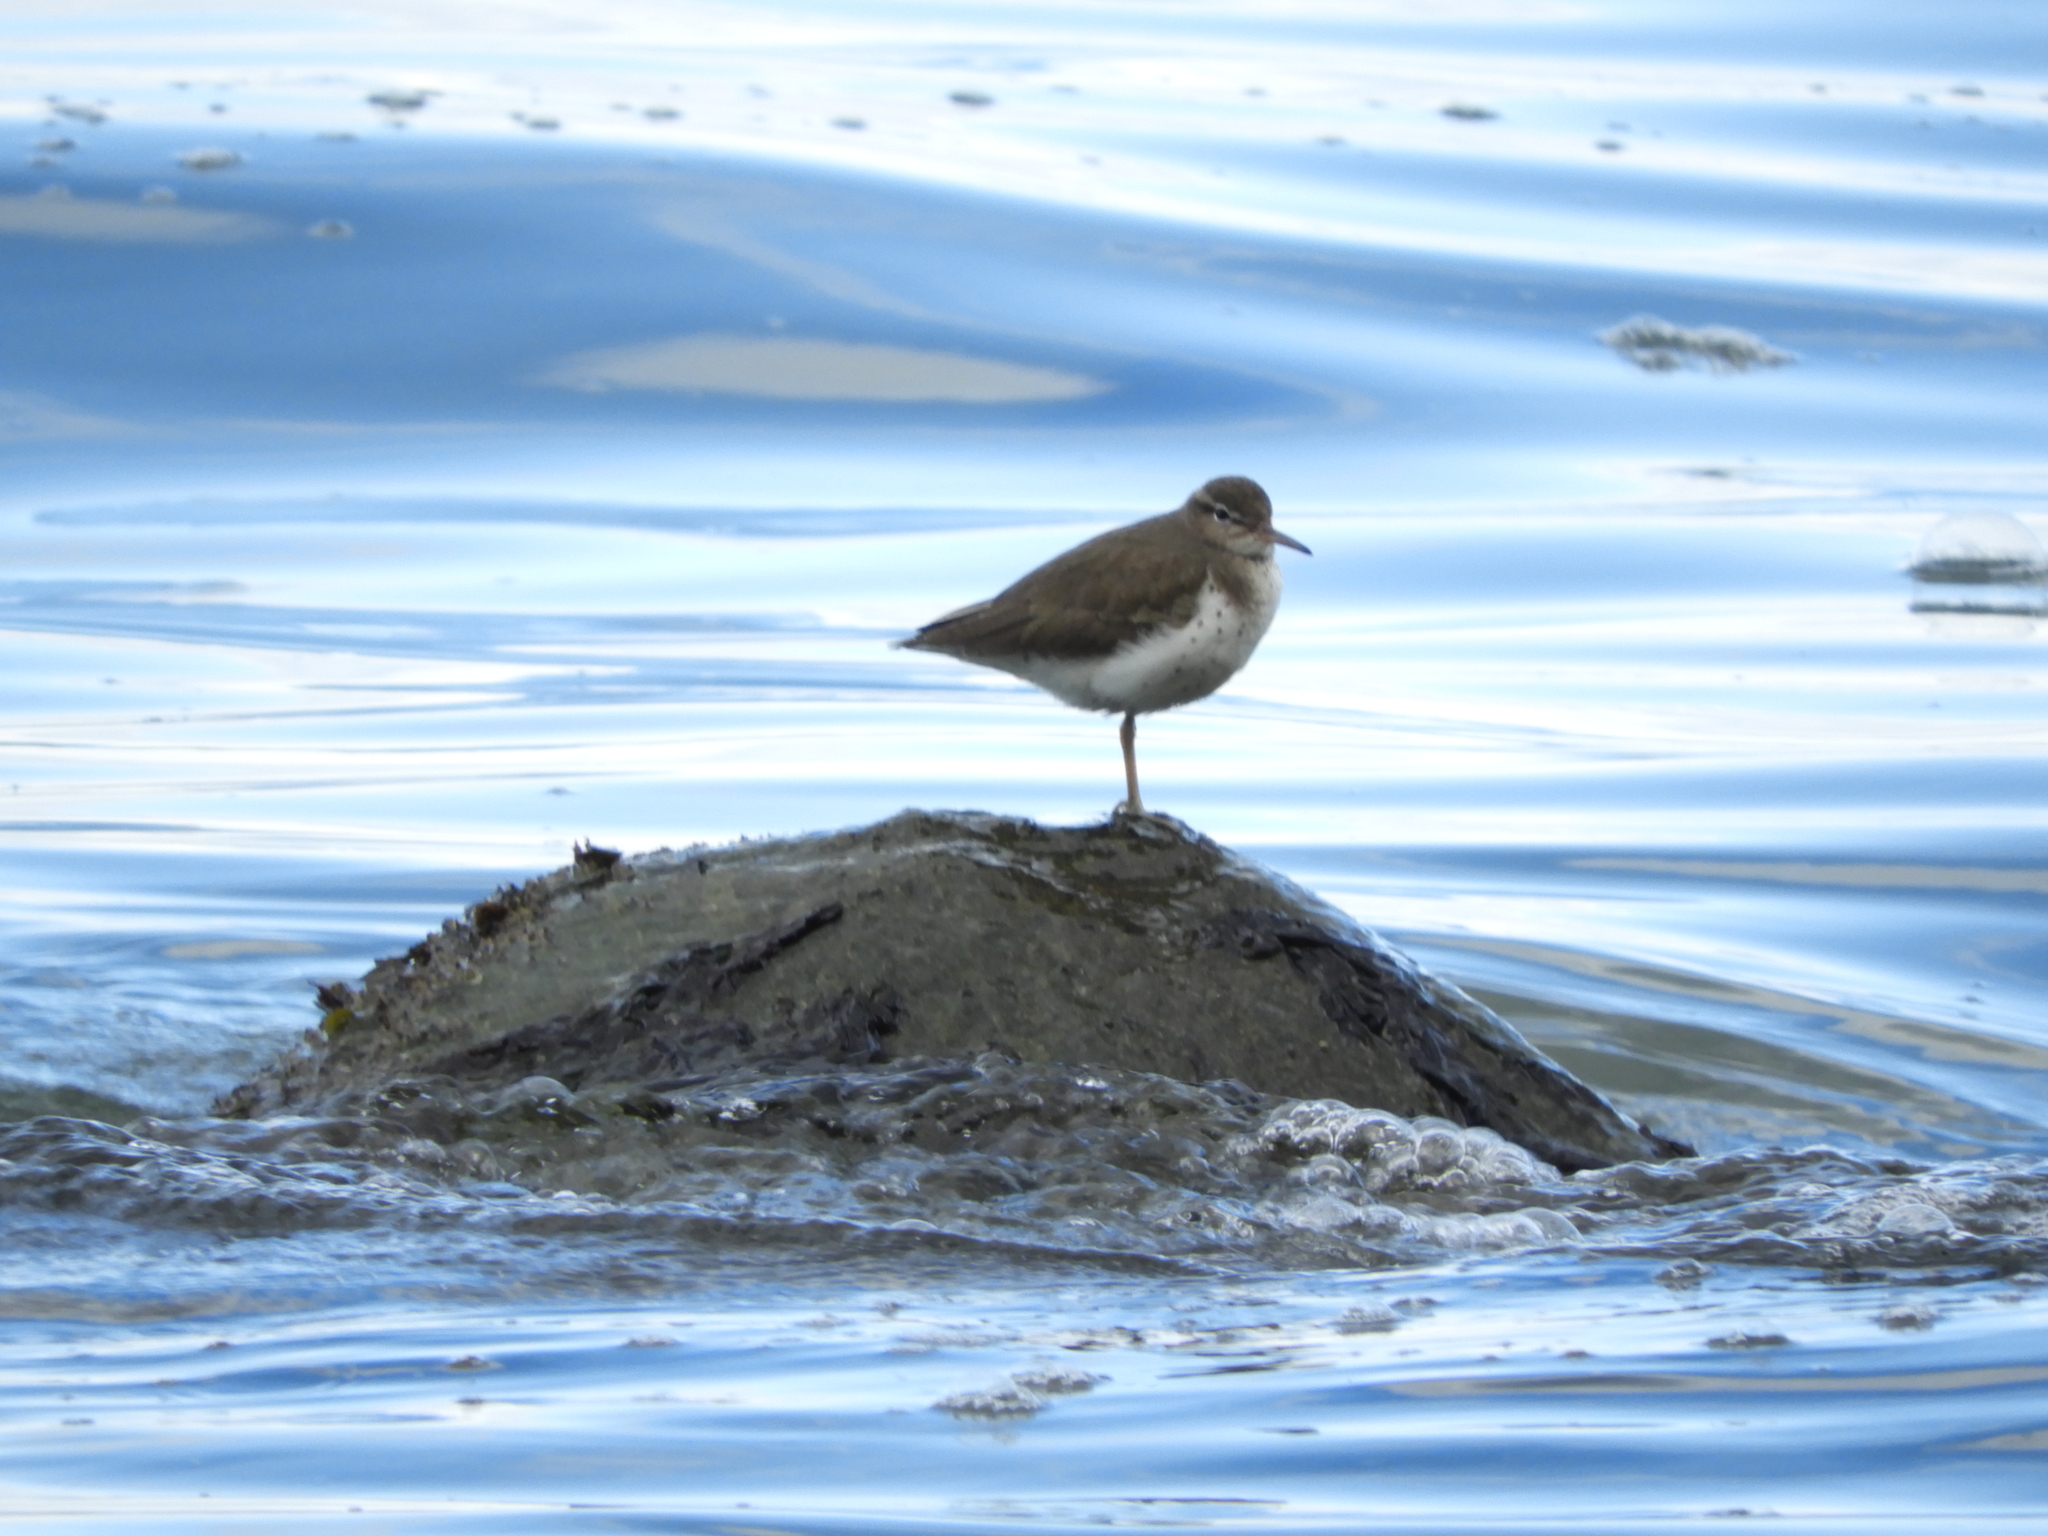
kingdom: Animalia
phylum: Chordata
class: Aves
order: Charadriiformes
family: Scolopacidae
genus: Actitis
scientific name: Actitis macularius
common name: Spotted sandpiper
